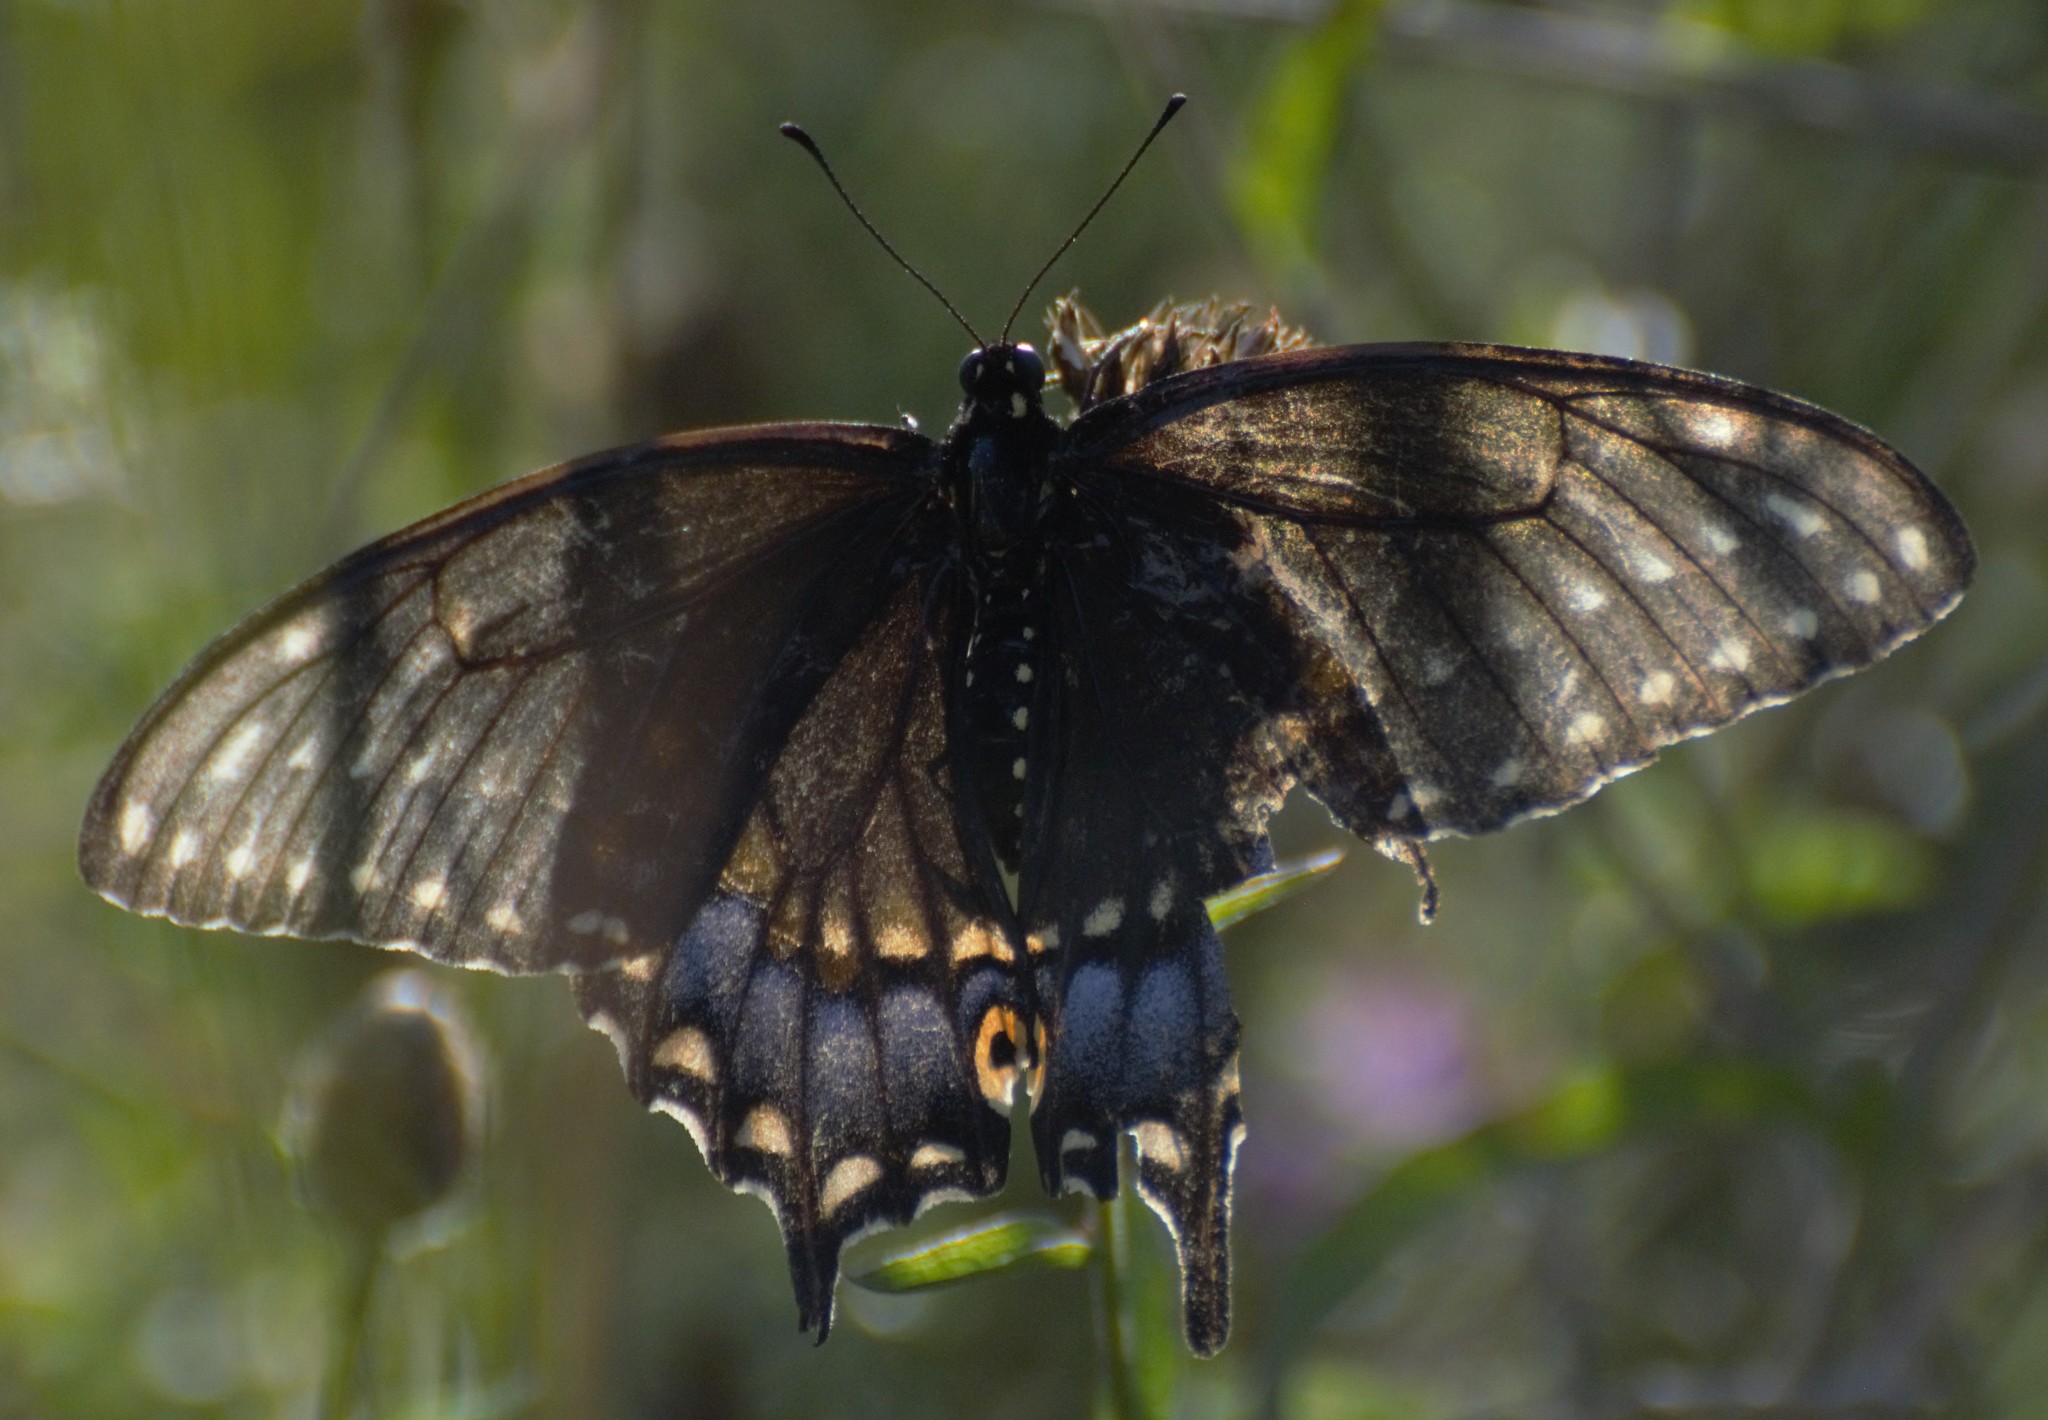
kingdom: Animalia
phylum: Arthropoda
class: Insecta
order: Lepidoptera
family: Papilionidae
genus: Papilio
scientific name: Papilio polyxenes
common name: Black swallowtail
